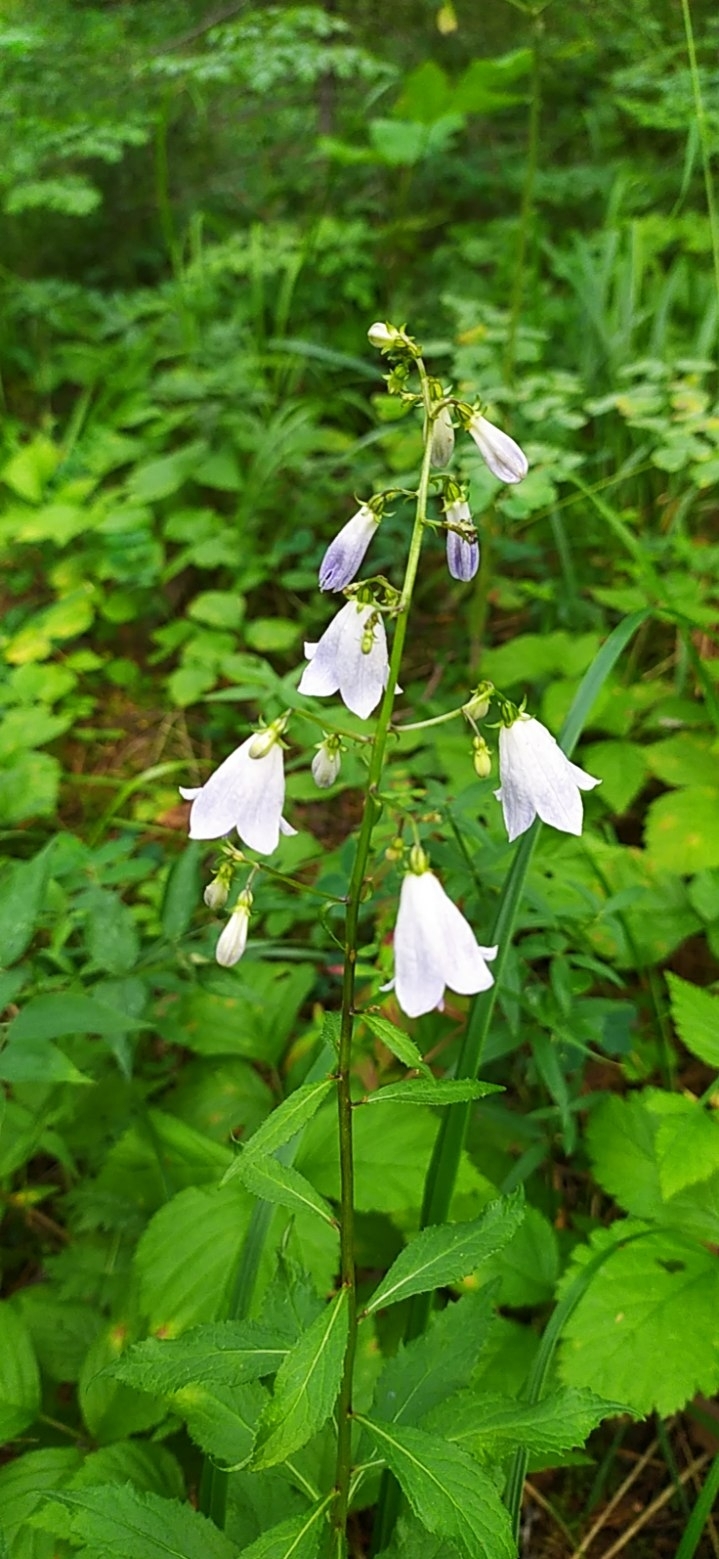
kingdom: Plantae
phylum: Tracheophyta
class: Magnoliopsida
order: Asterales
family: Campanulaceae
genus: Adenophora
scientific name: Adenophora liliifolia
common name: Lilyleaf ladybells
